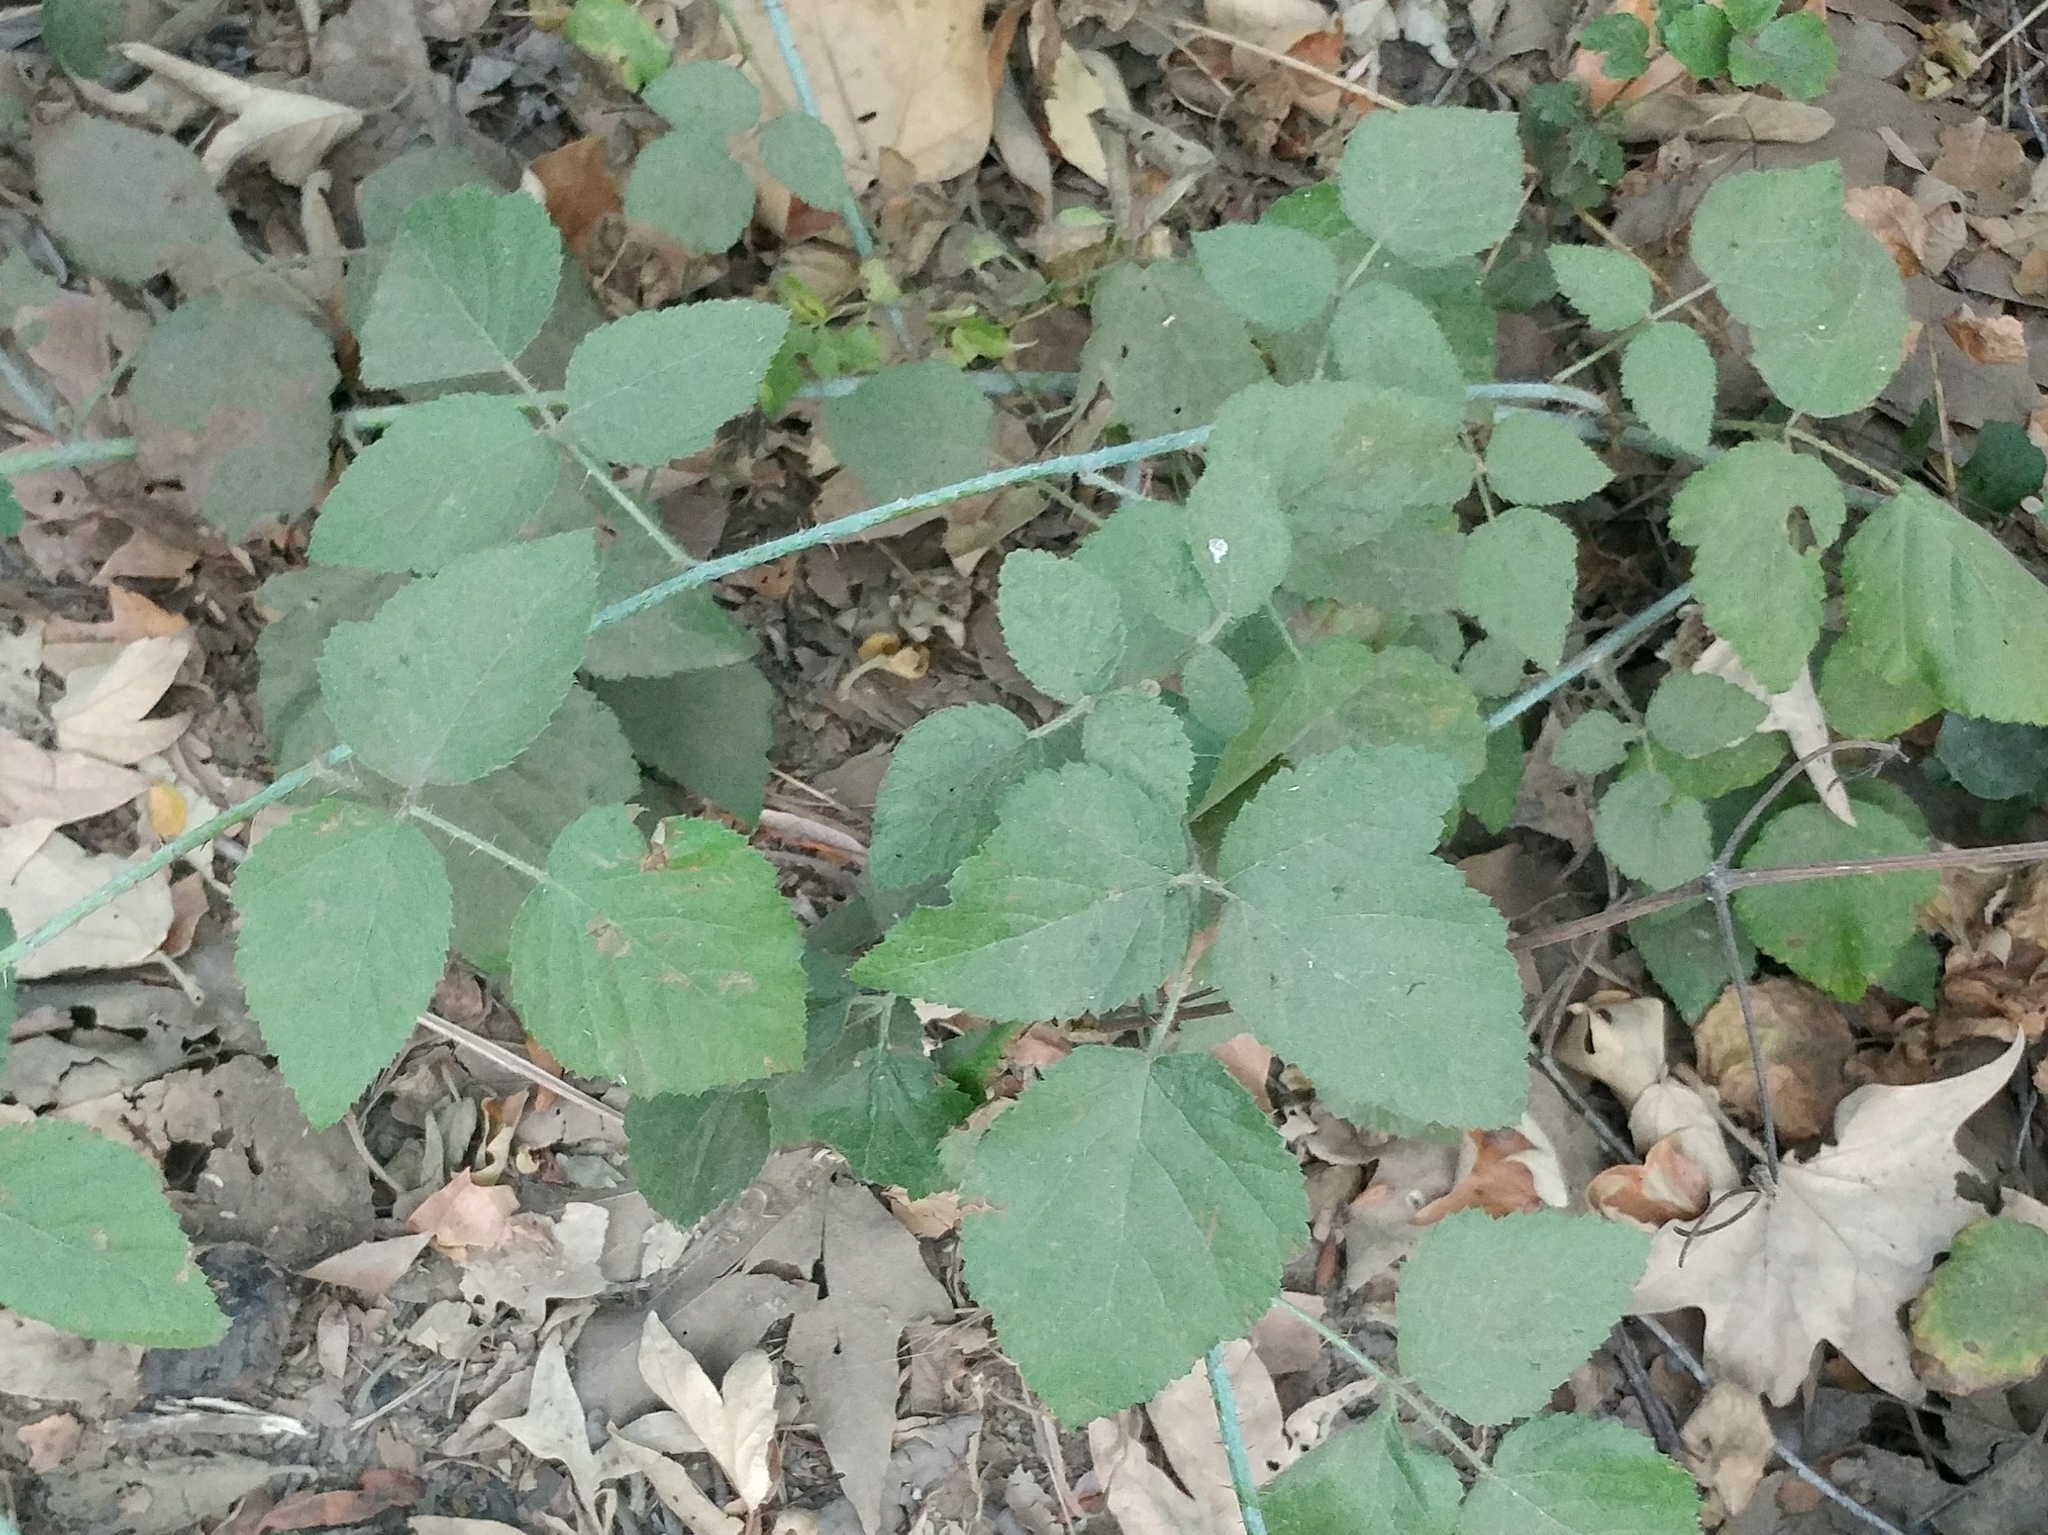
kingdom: Plantae
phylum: Tracheophyta
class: Magnoliopsida
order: Rosales
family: Rosaceae
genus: Rubus
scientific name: Rubus ursinus
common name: Pacific blackberry
